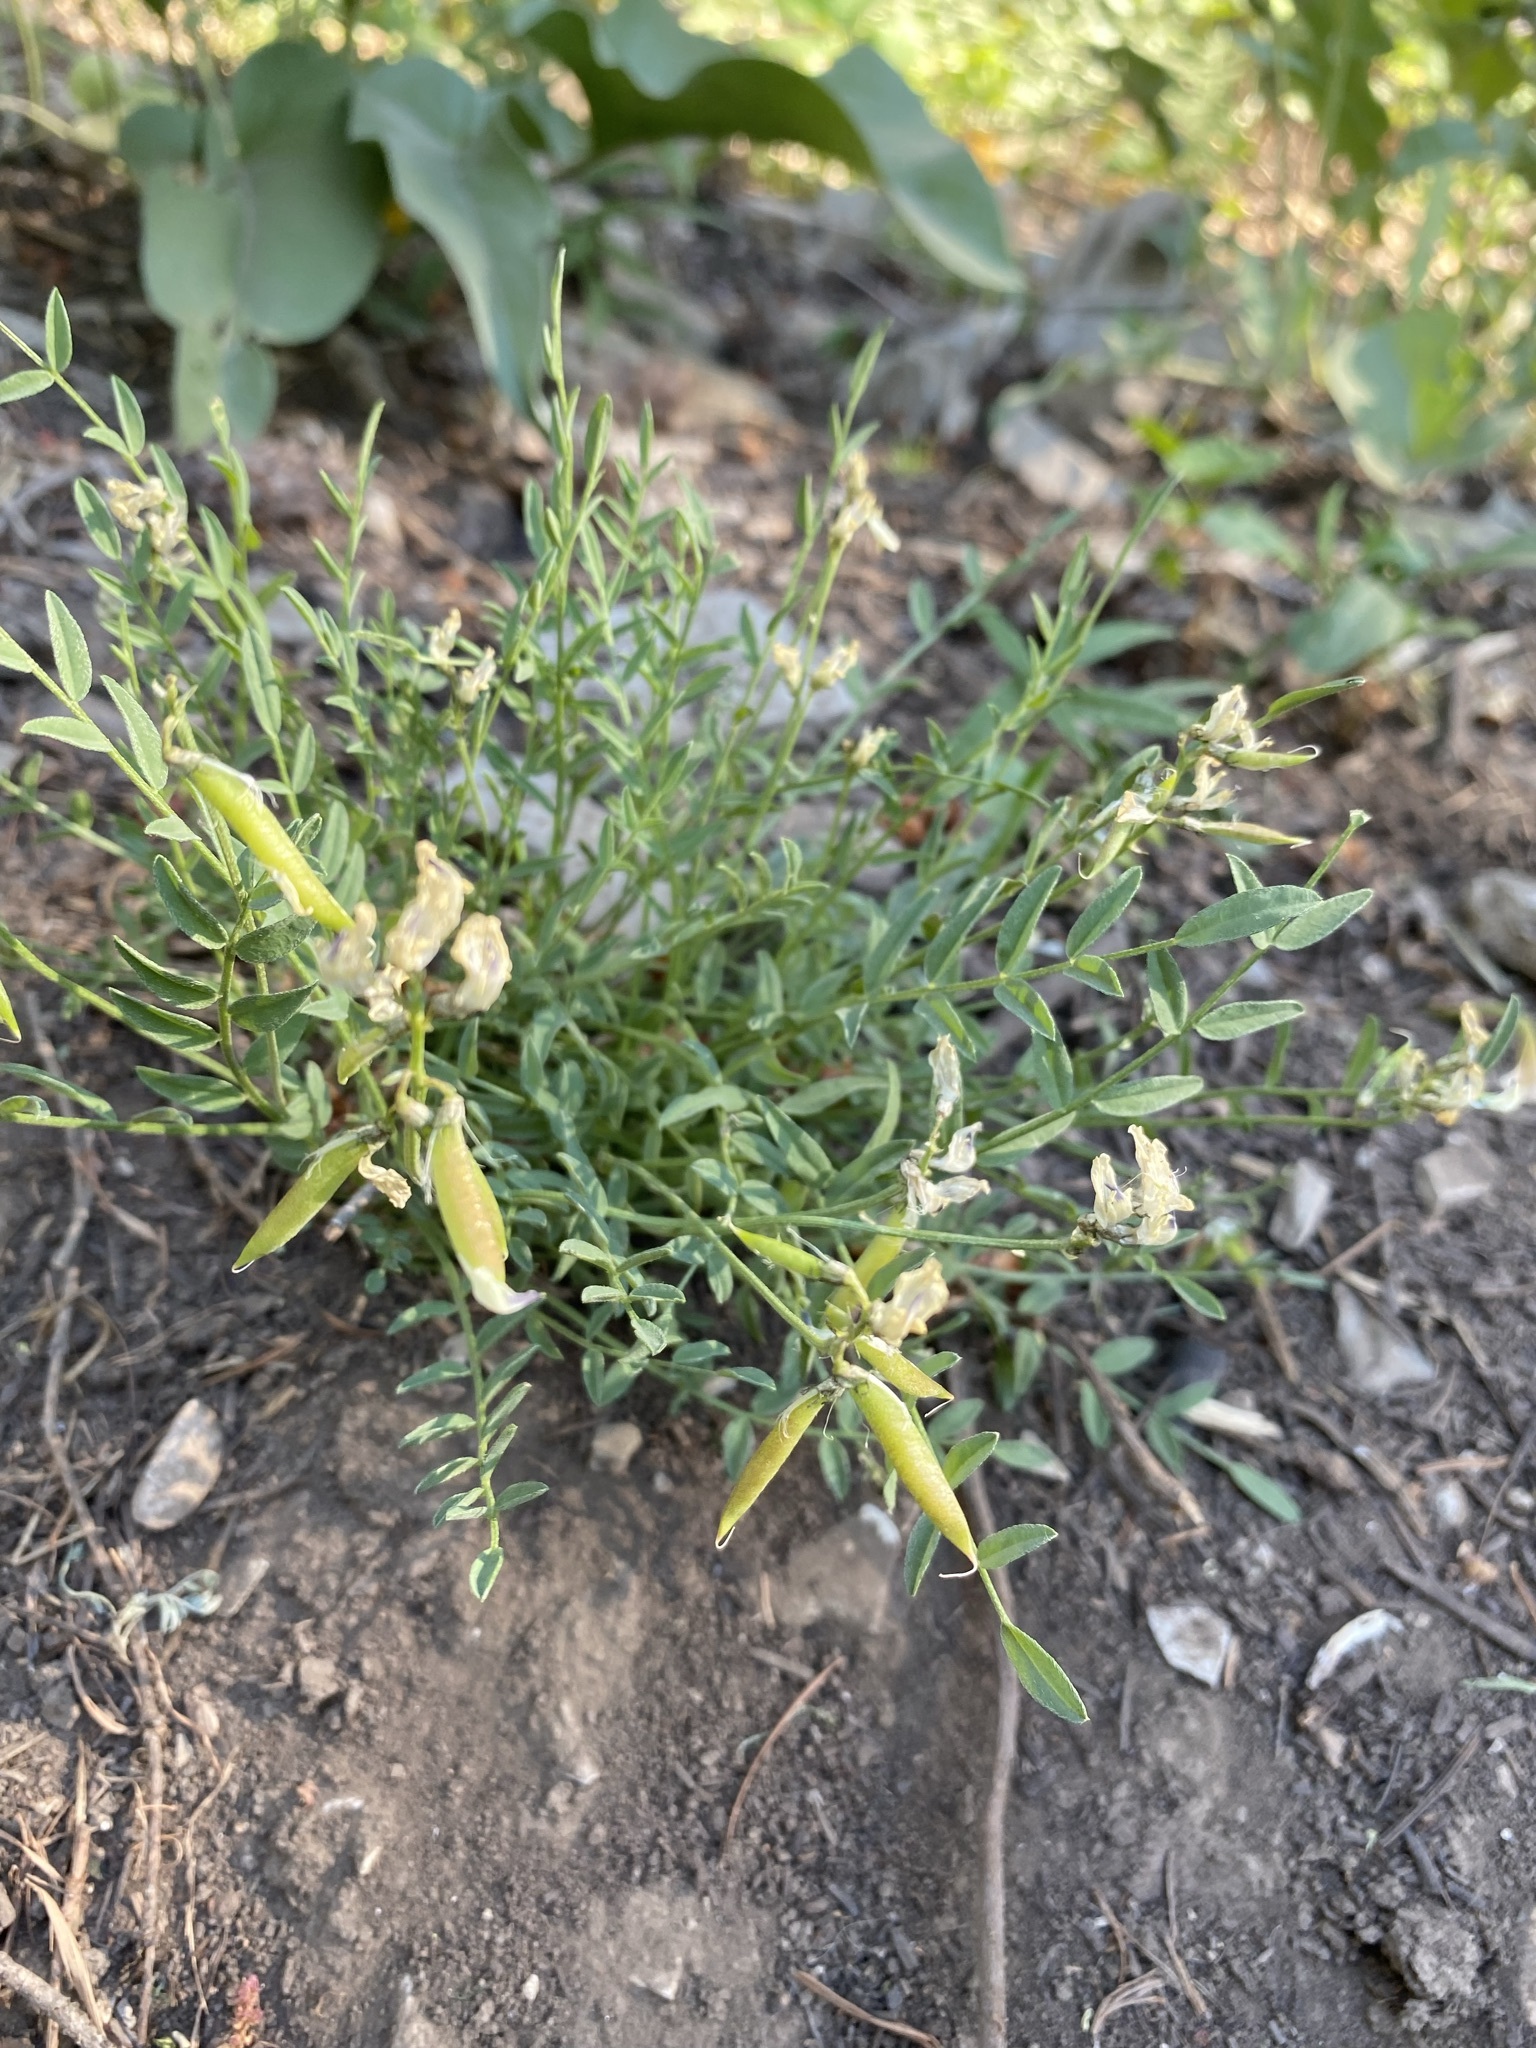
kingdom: Plantae
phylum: Tracheophyta
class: Magnoliopsida
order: Fabales
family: Fabaceae
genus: Astragalus
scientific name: Astragalus miser
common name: Timber milkvetch
